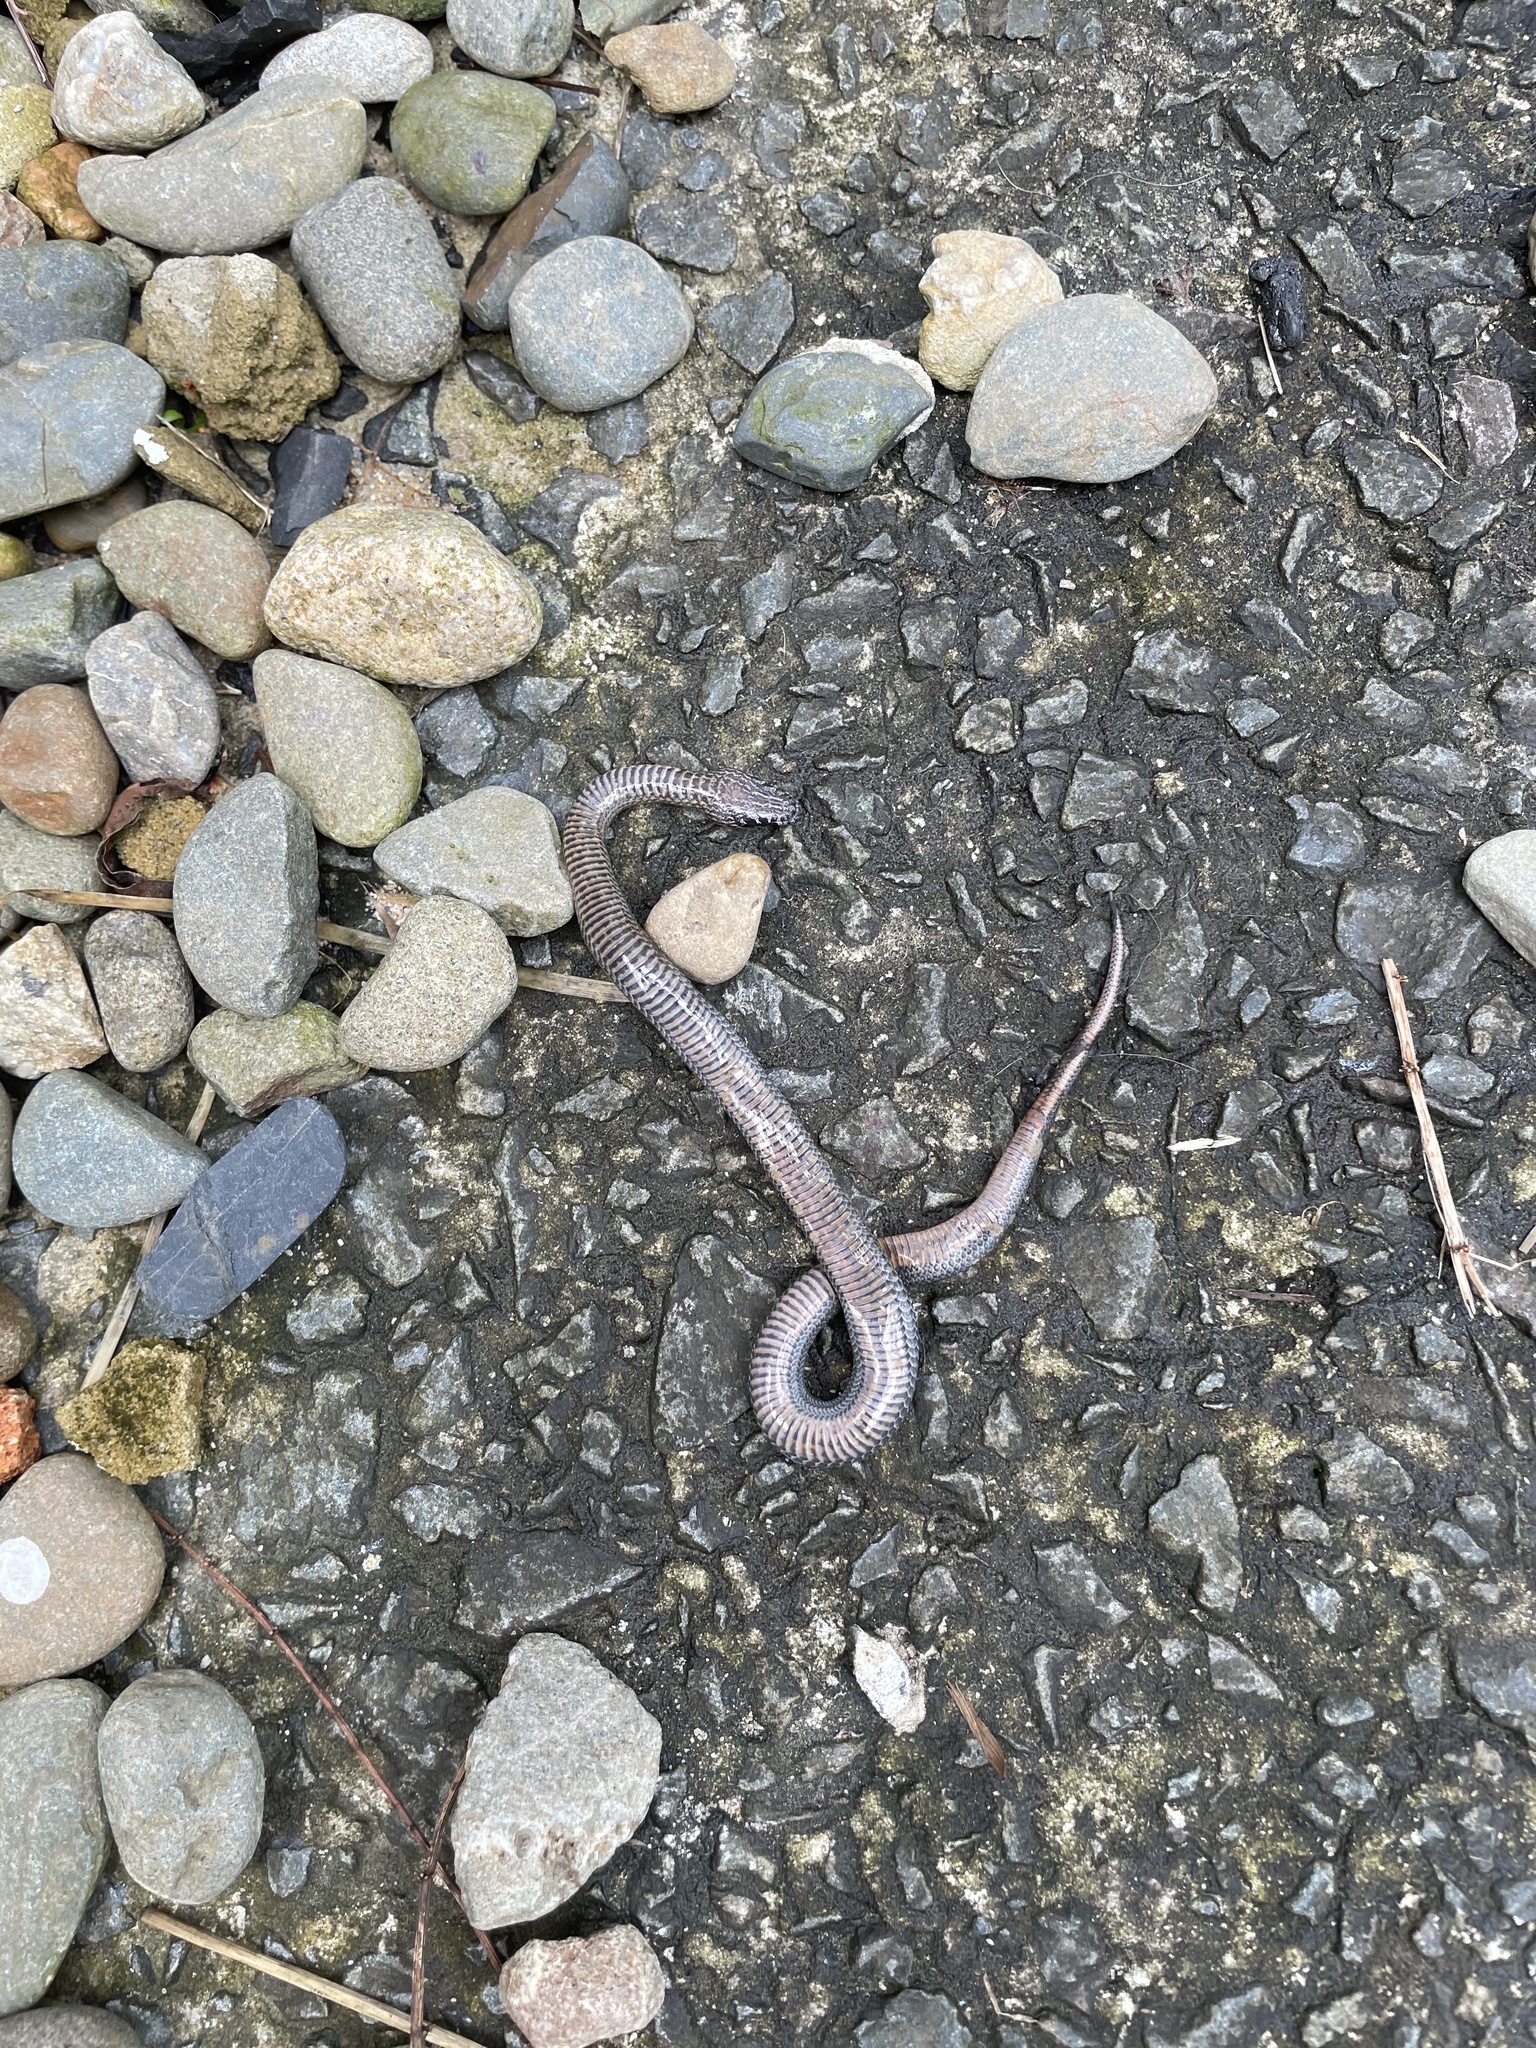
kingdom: Animalia
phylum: Chordata
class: Squamata
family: Elapidae
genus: Cacophis
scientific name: Cacophis squamulosus
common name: Golden crowned snake
